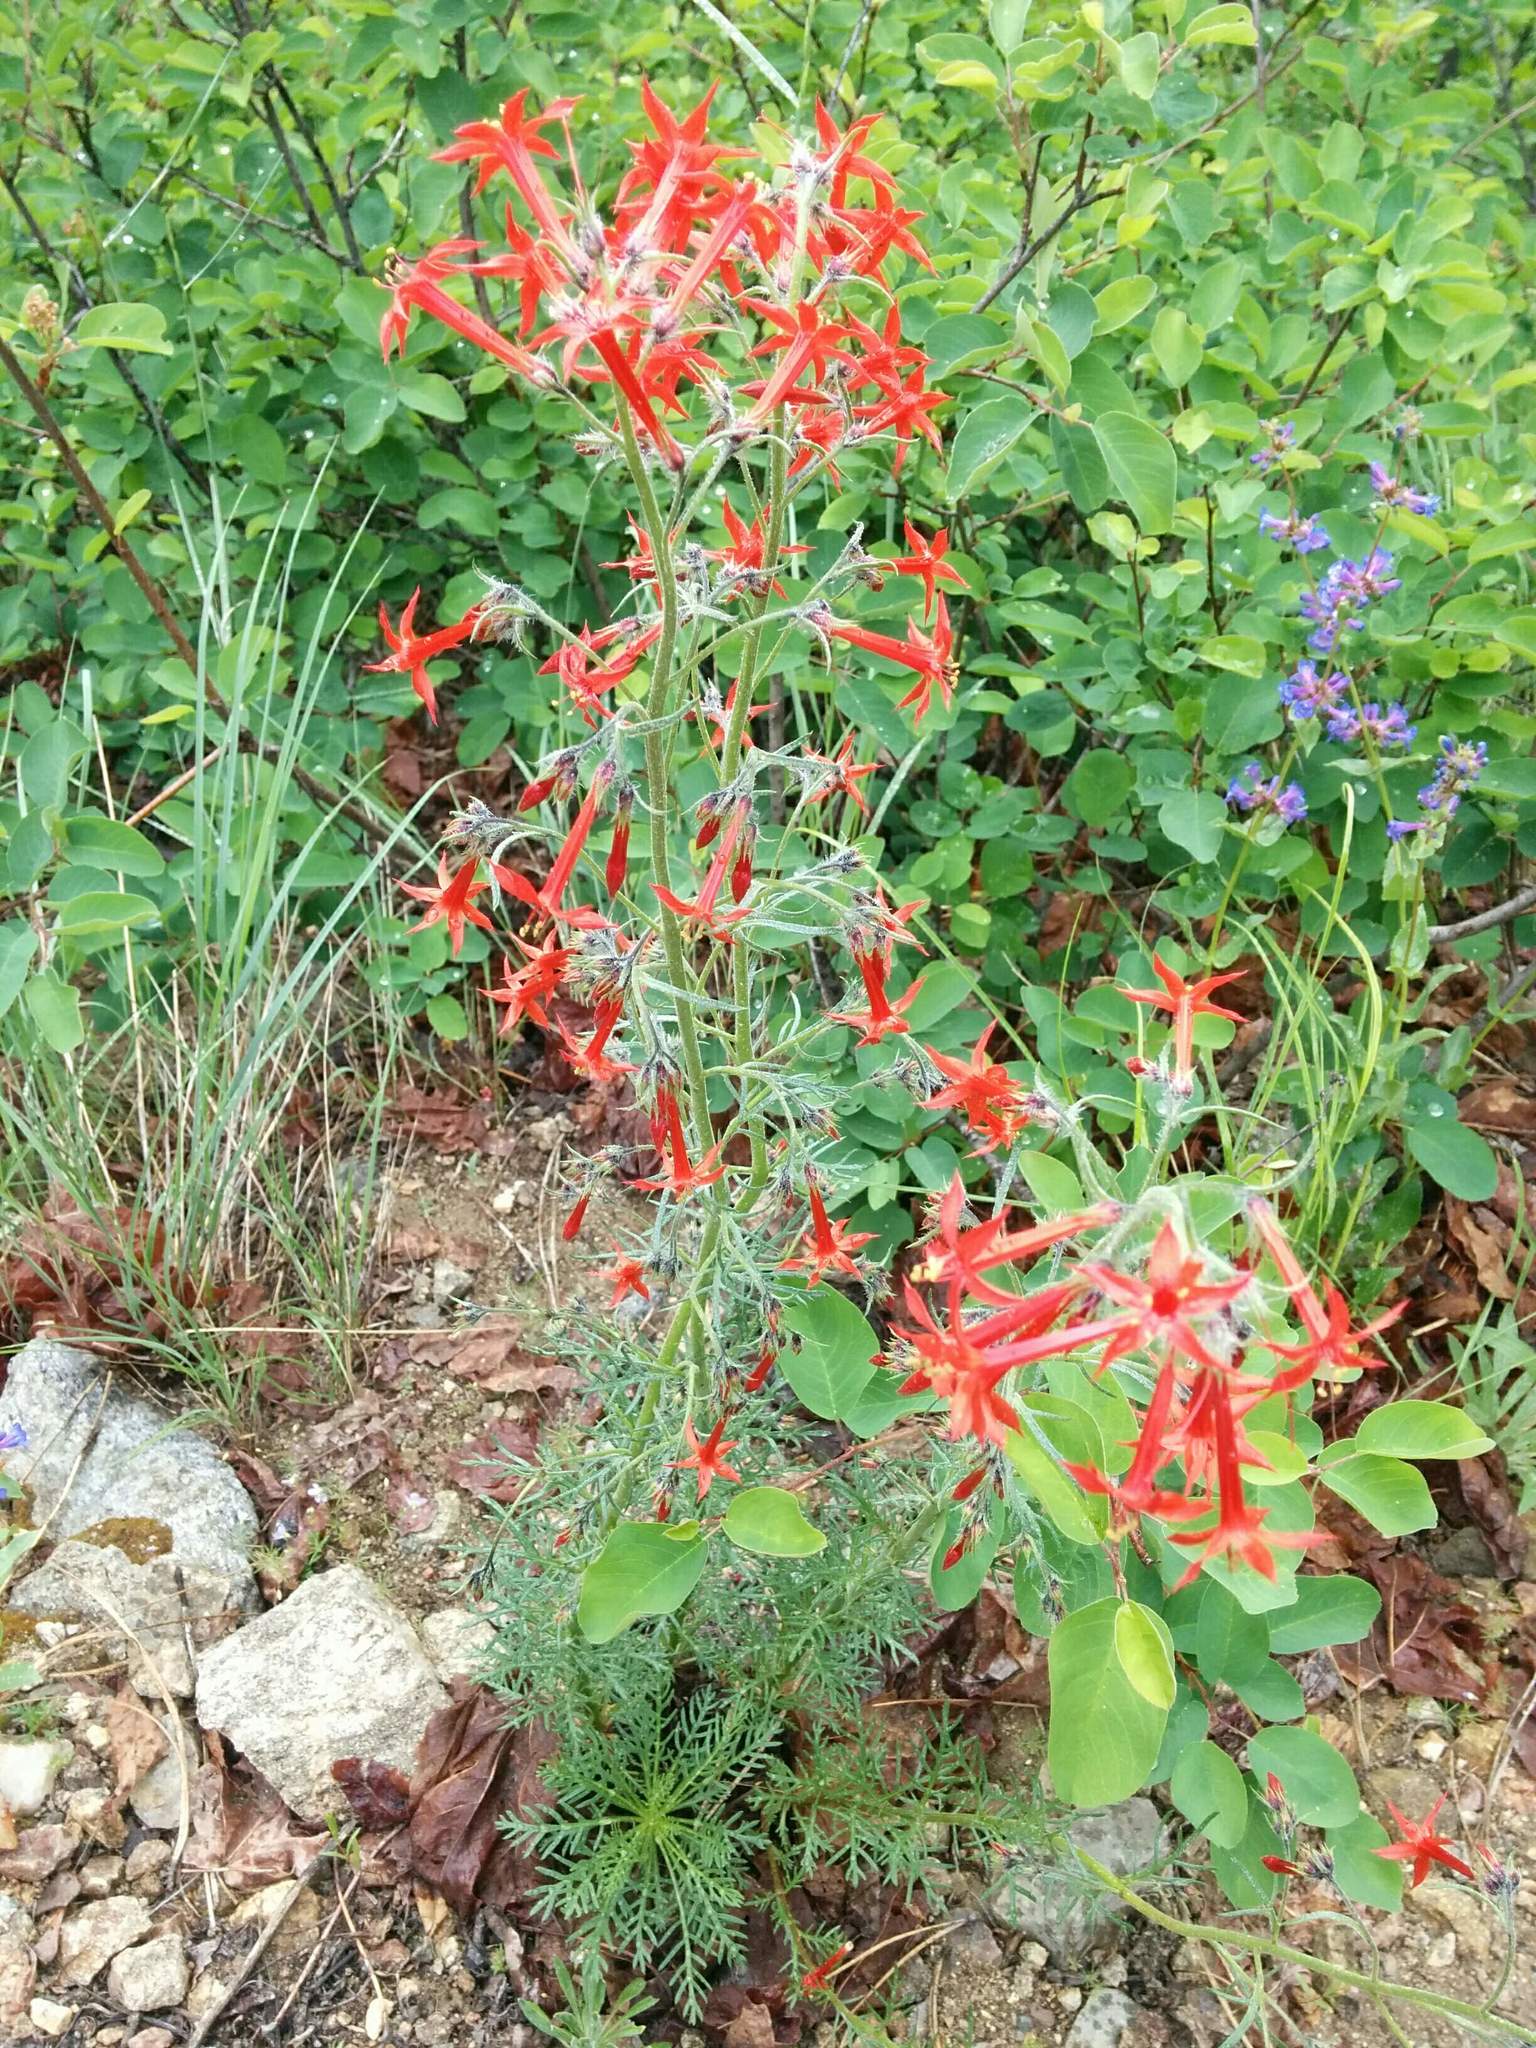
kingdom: Plantae
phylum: Tracheophyta
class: Magnoliopsida
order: Ericales
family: Polemoniaceae
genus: Ipomopsis
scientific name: Ipomopsis aggregata
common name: Scarlet gilia
